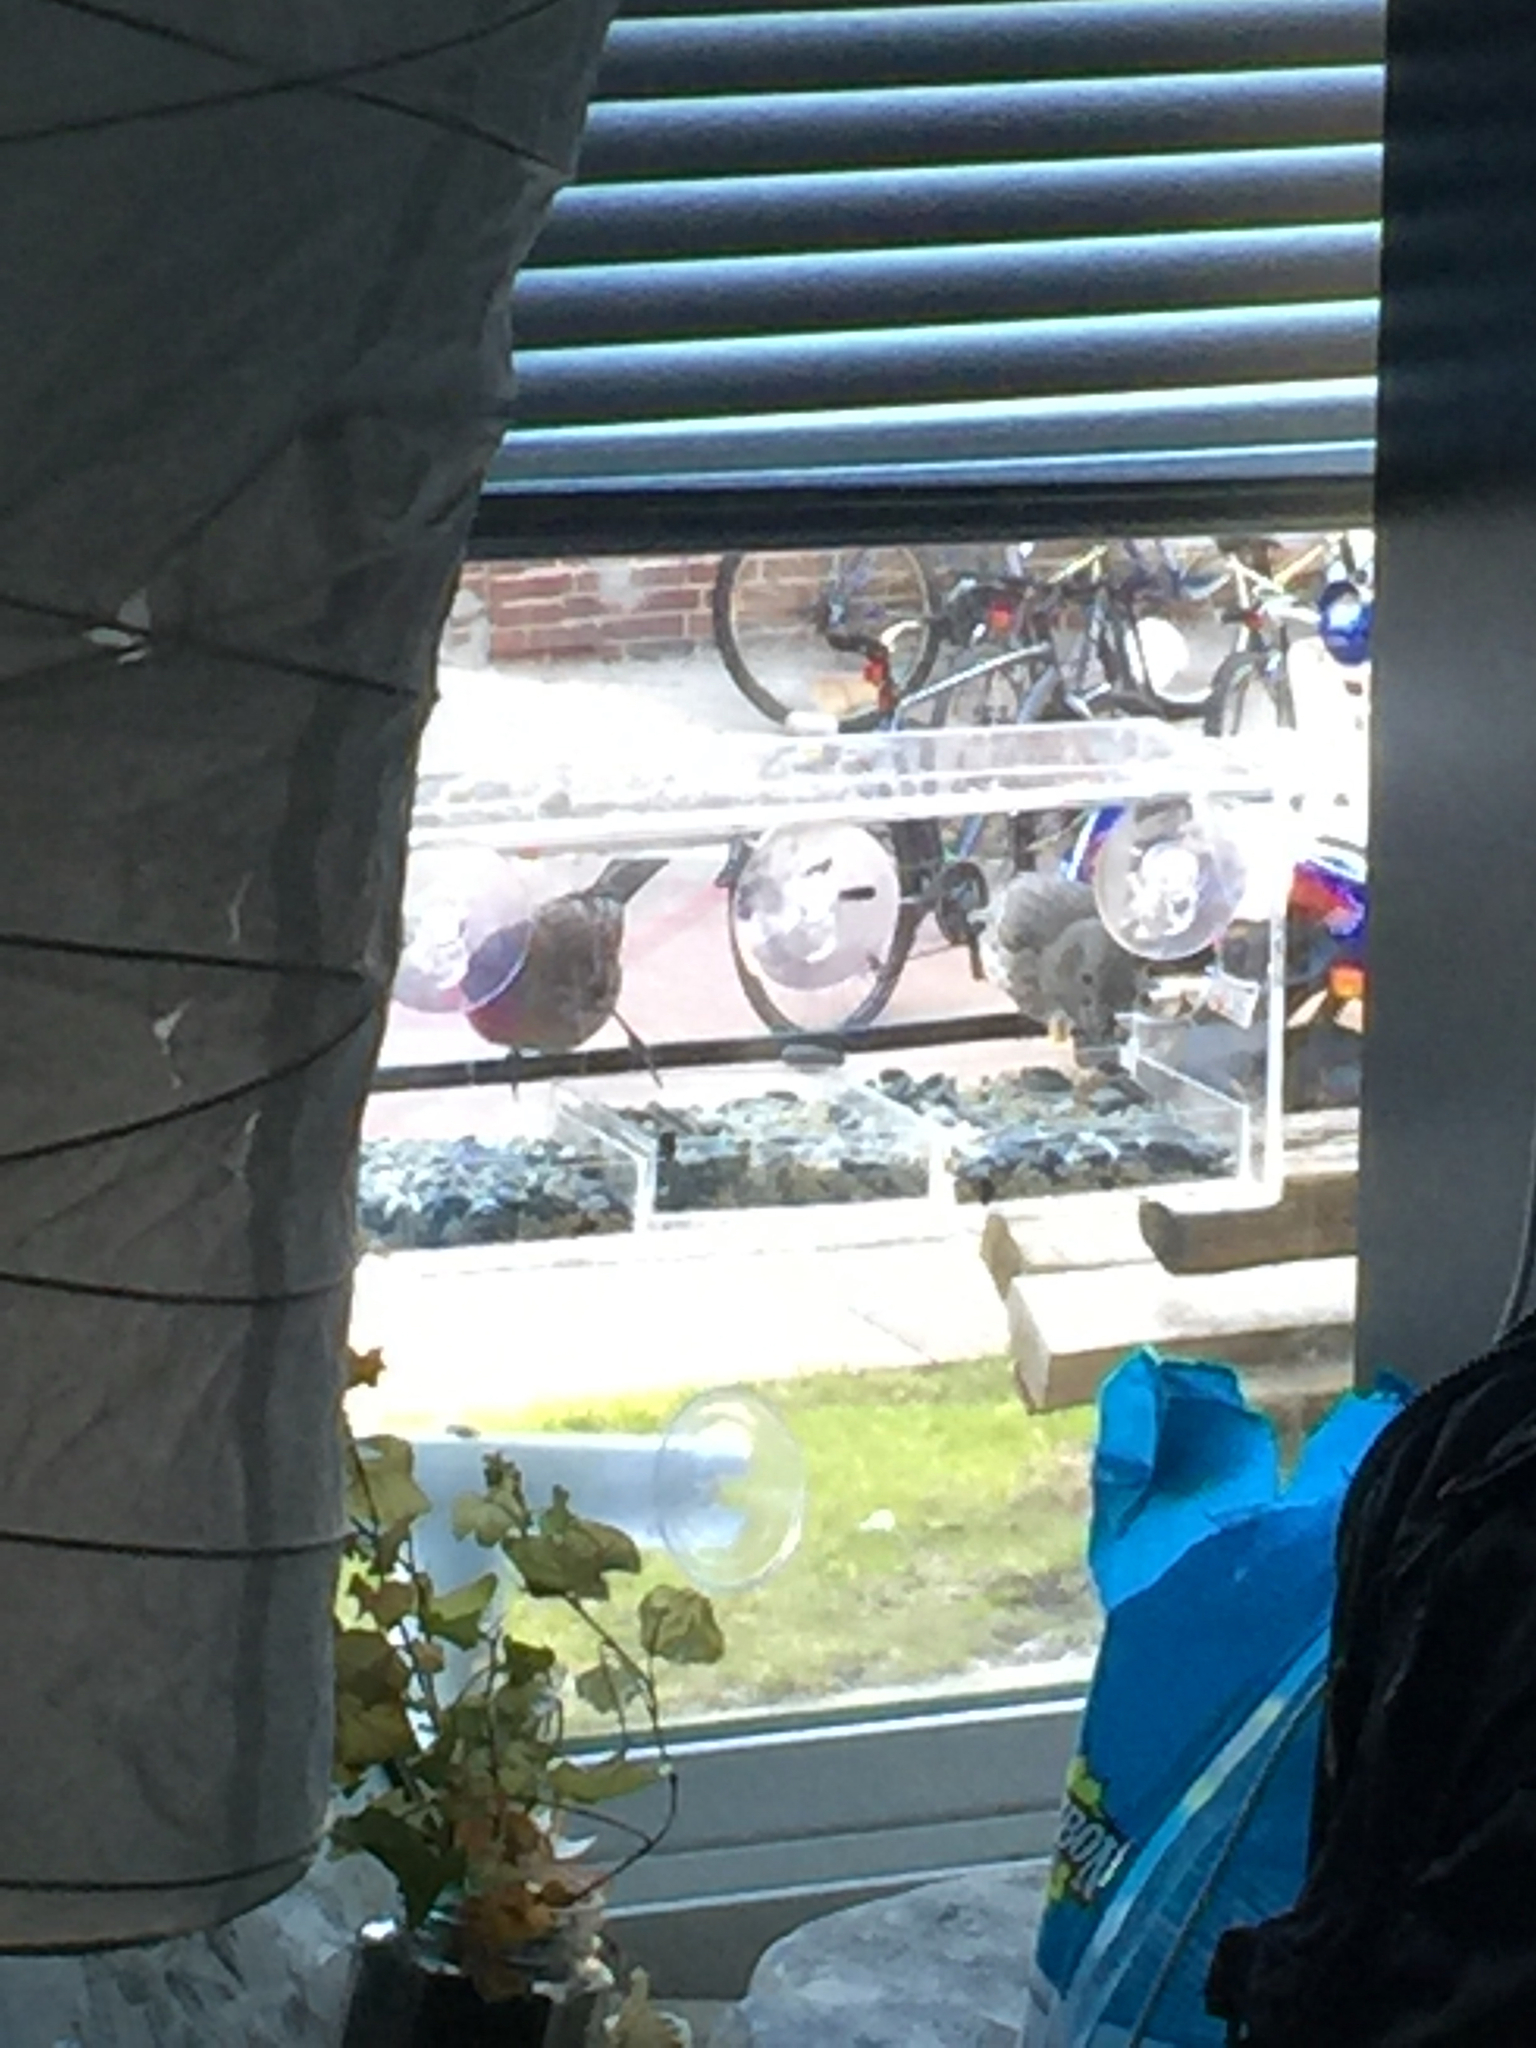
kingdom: Animalia
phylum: Chordata
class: Aves
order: Passeriformes
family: Fringillidae
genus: Haemorhous
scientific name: Haemorhous mexicanus
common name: House finch
